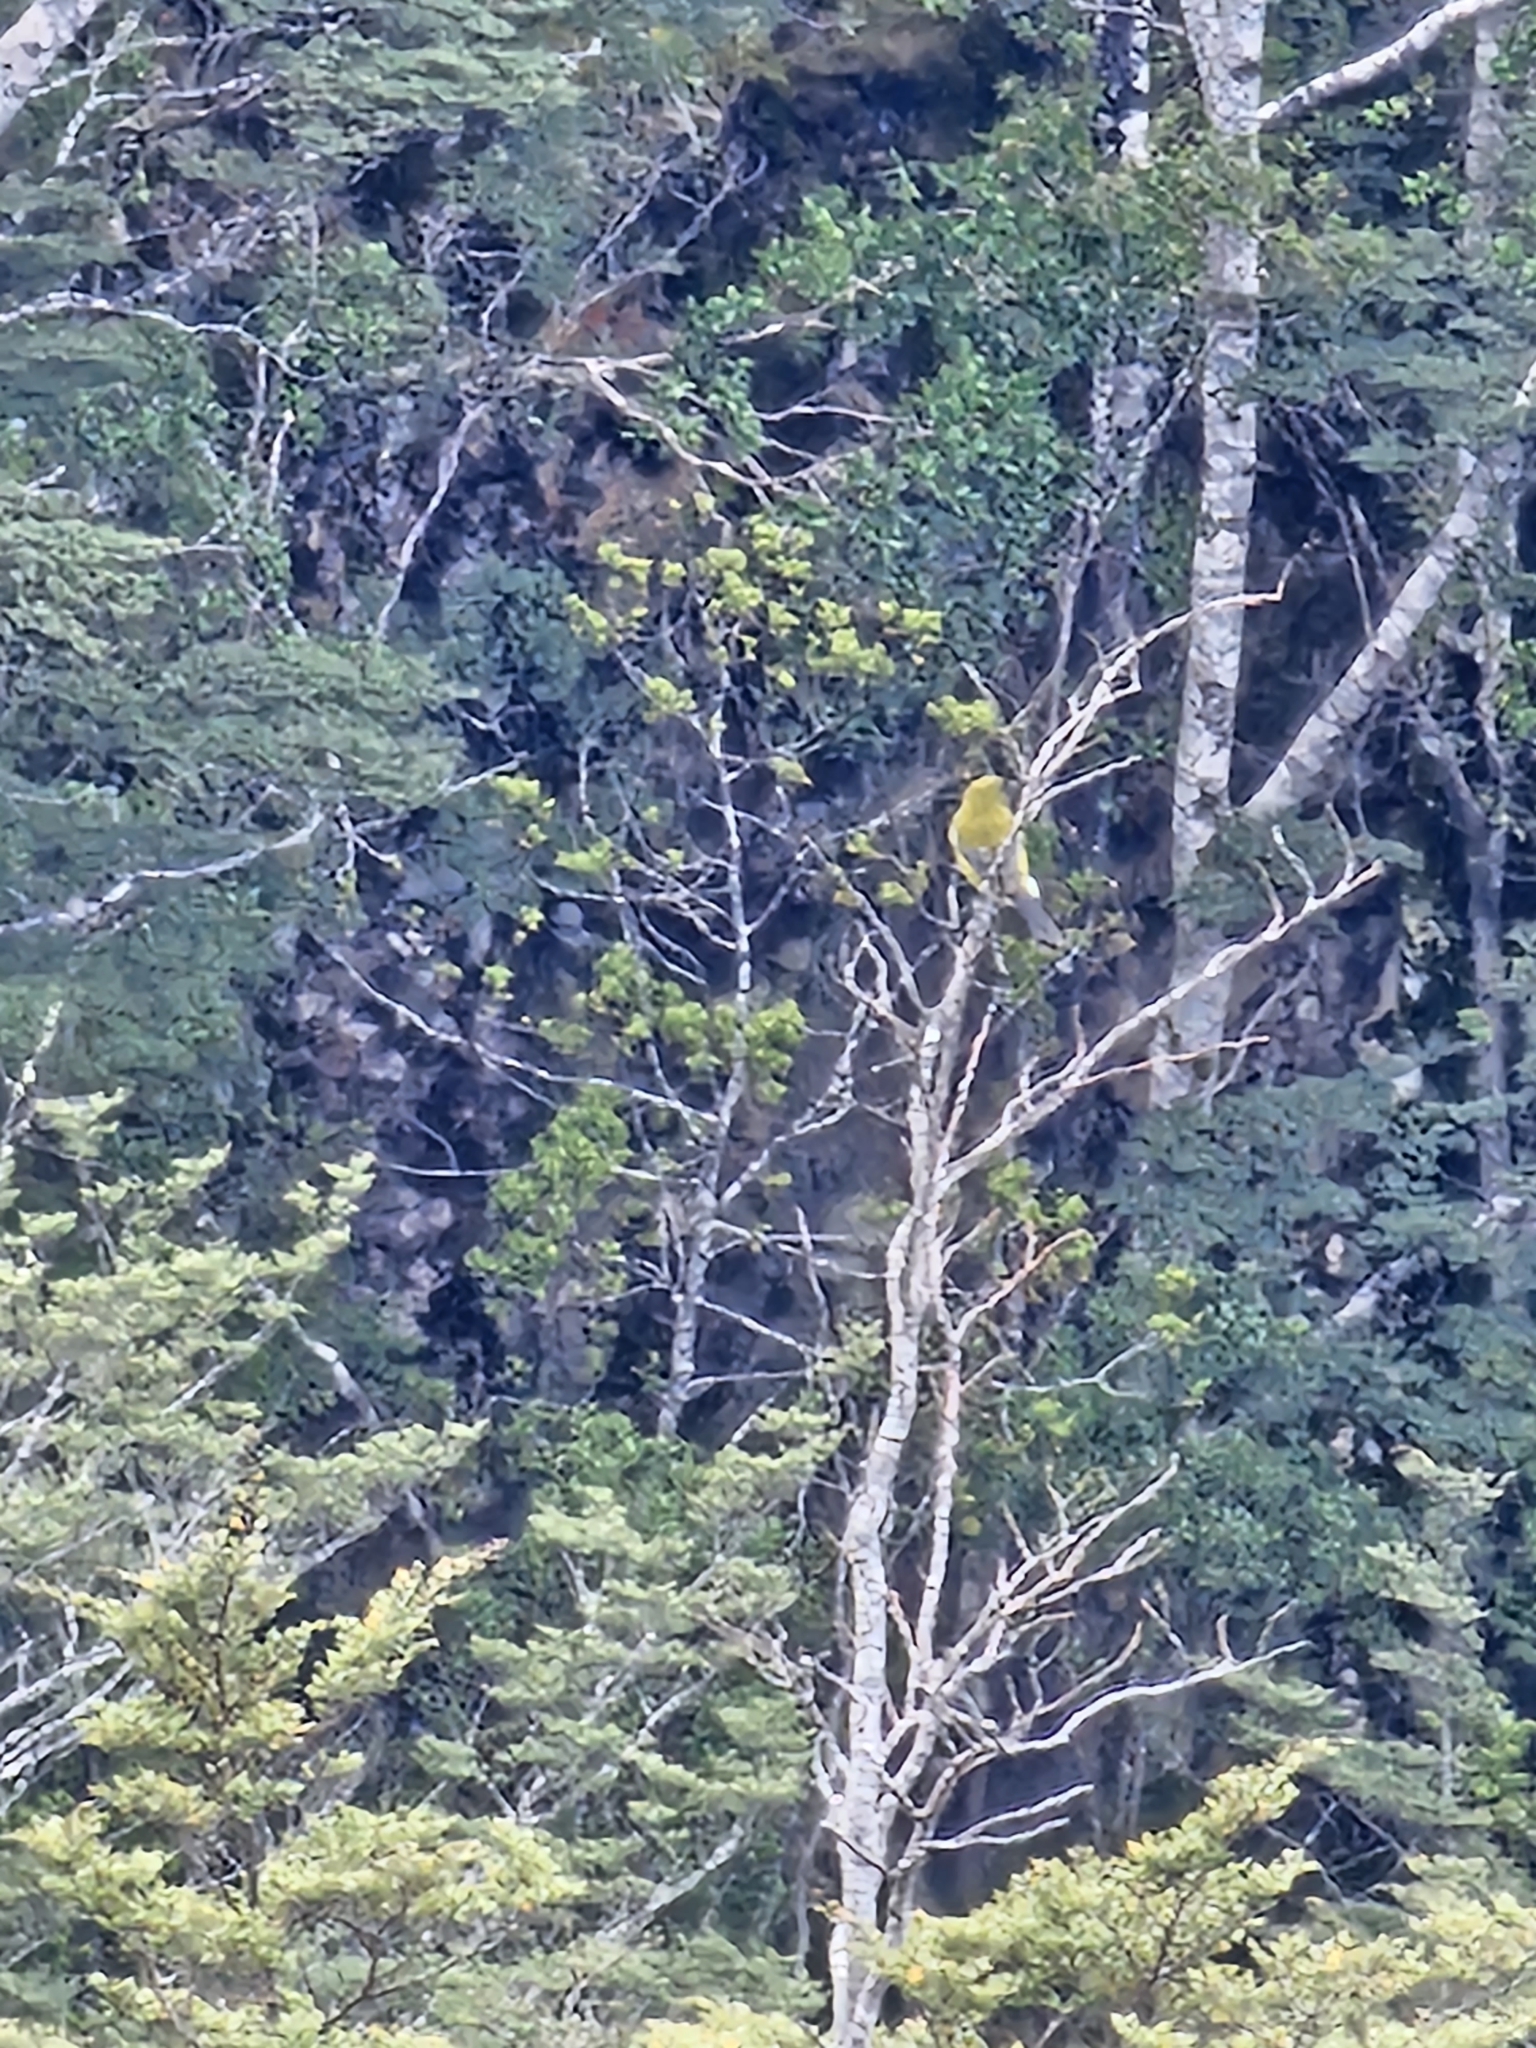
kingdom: Animalia
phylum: Chordata
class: Aves
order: Passeriformes
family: Meliphagidae
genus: Anthornis
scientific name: Anthornis melanura
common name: New zealand bellbird
